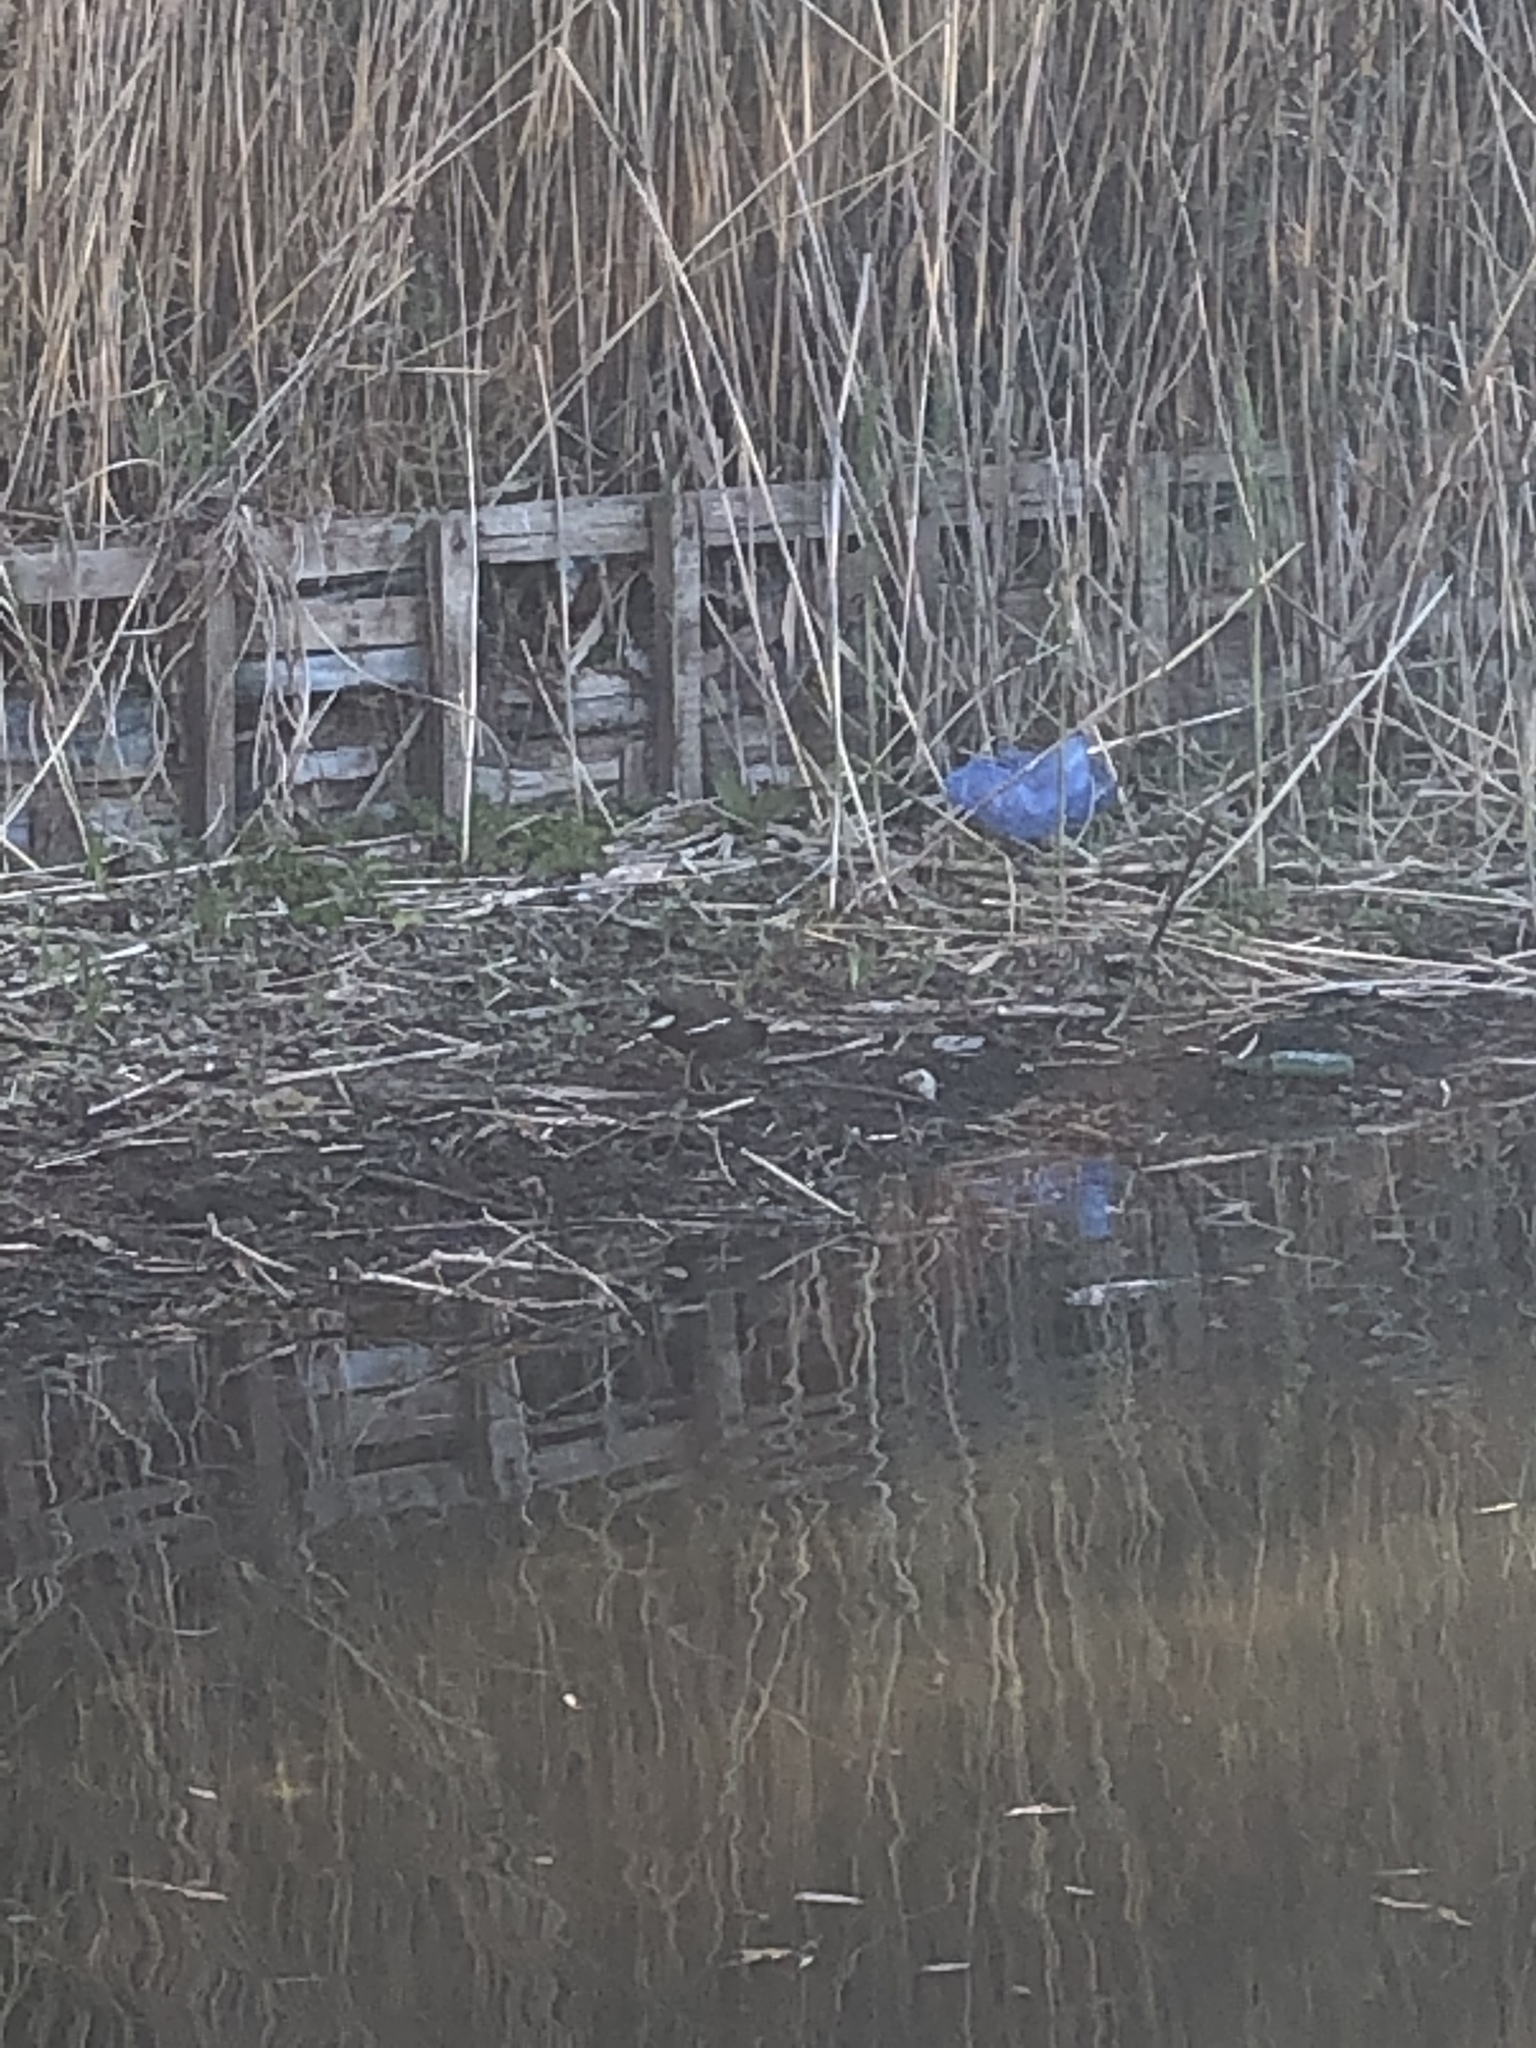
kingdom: Animalia
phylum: Chordata
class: Aves
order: Gruiformes
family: Rallidae
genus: Gallinula
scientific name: Gallinula chloropus
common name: Common moorhen
